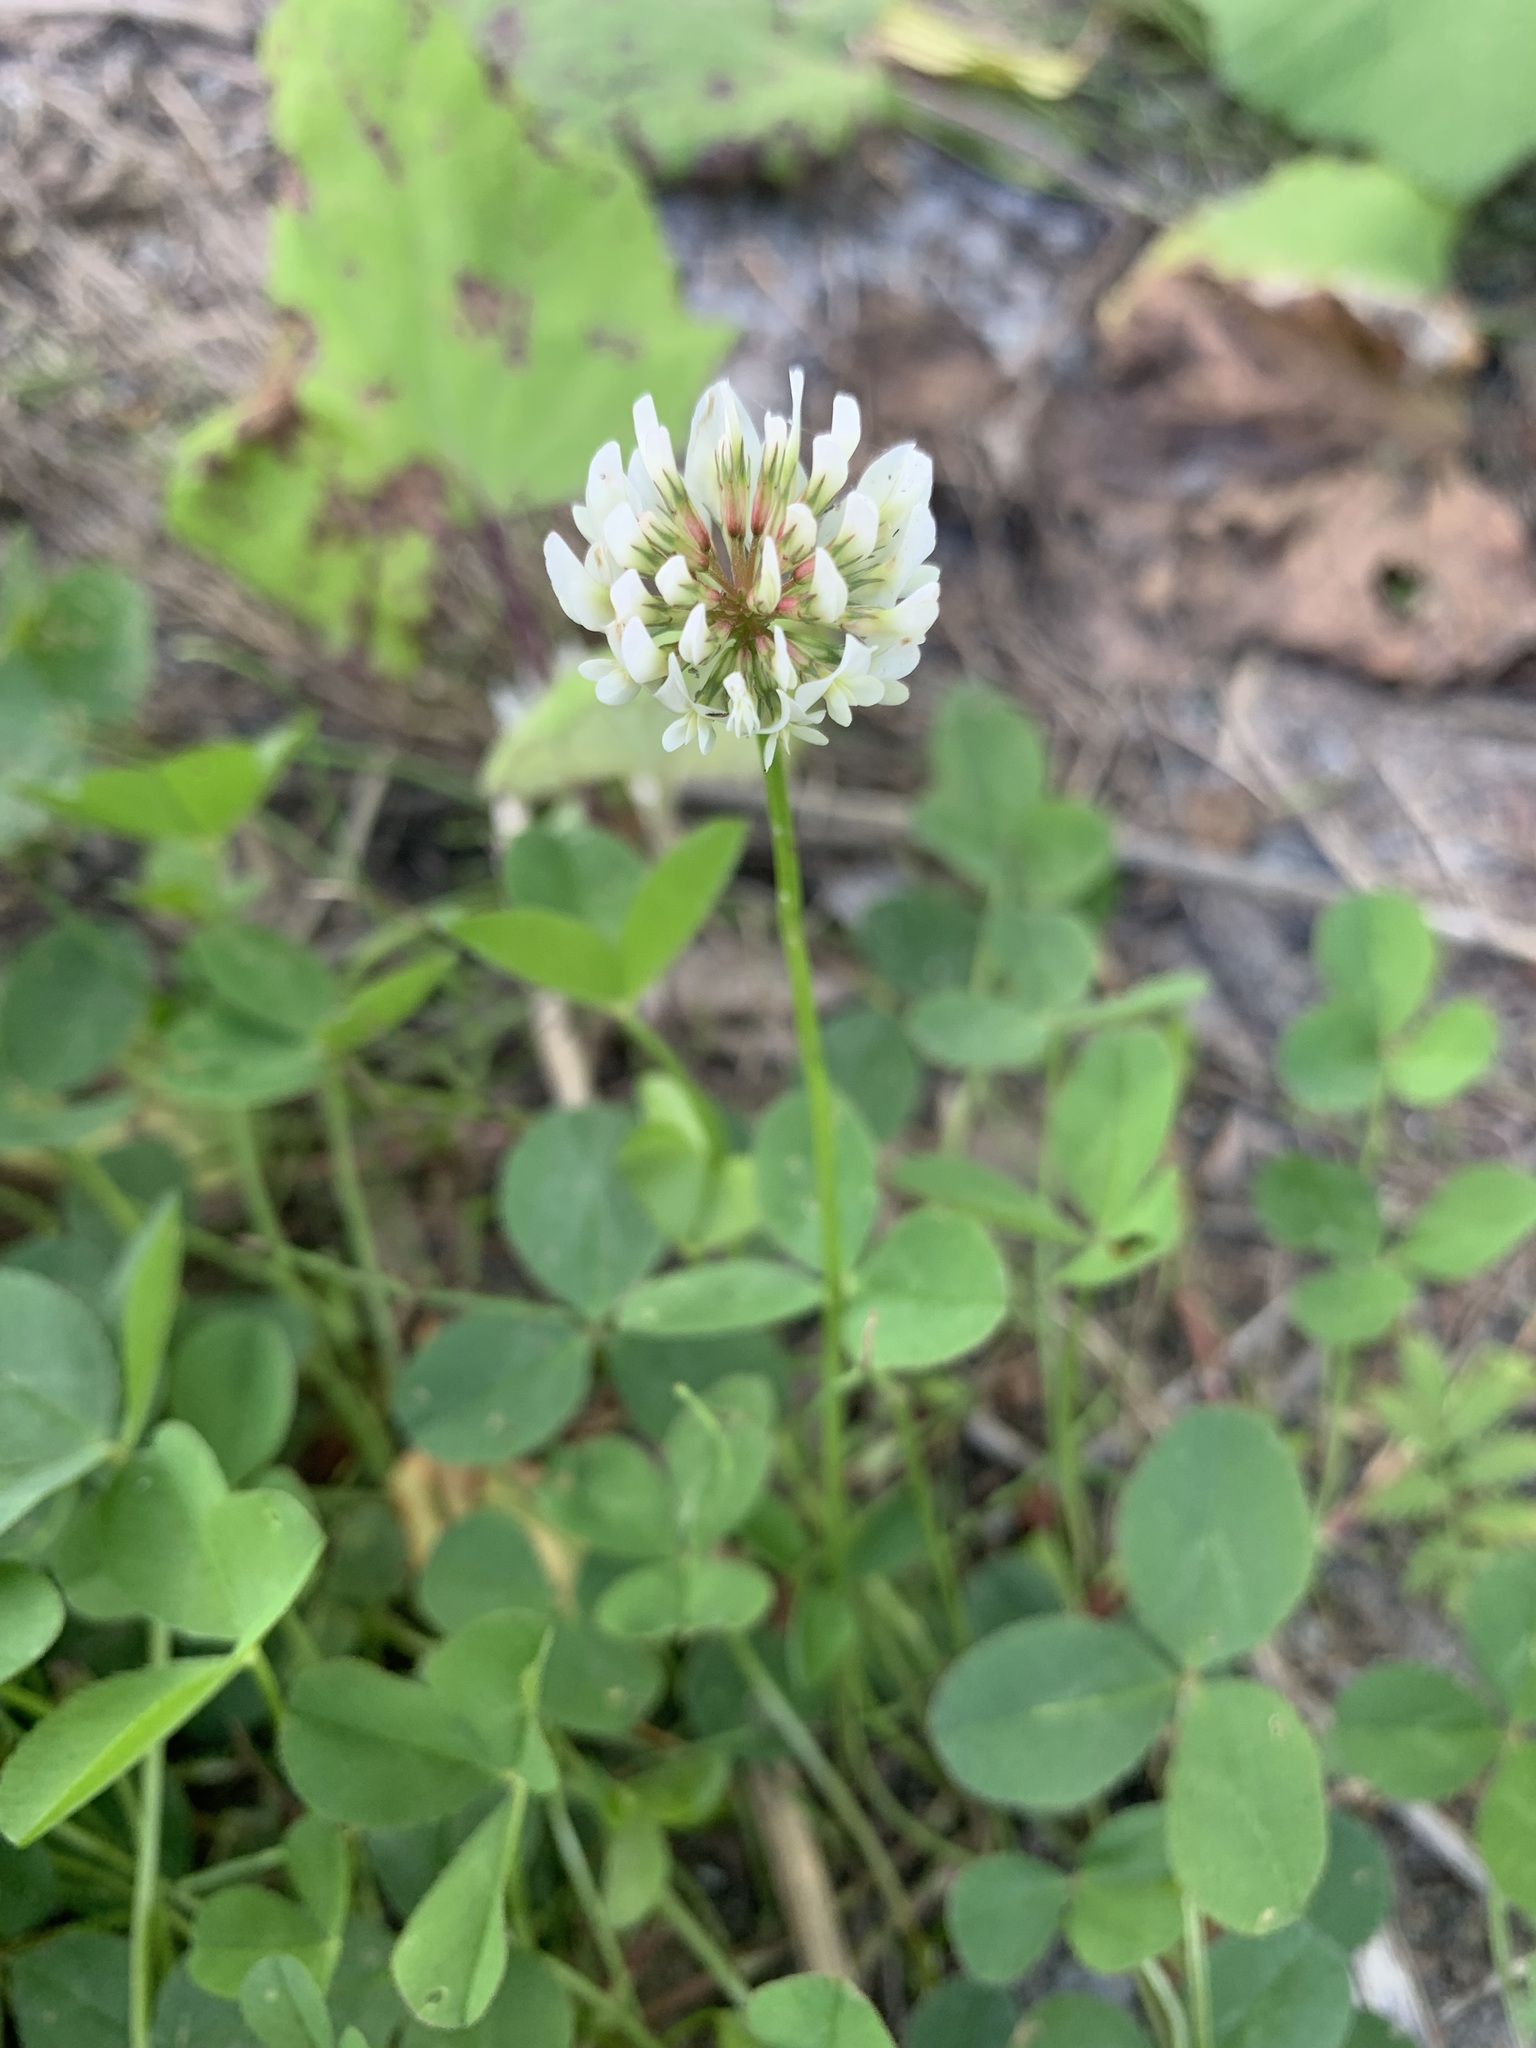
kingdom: Plantae
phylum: Tracheophyta
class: Magnoliopsida
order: Fabales
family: Fabaceae
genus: Trifolium
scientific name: Trifolium repens
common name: White clover
